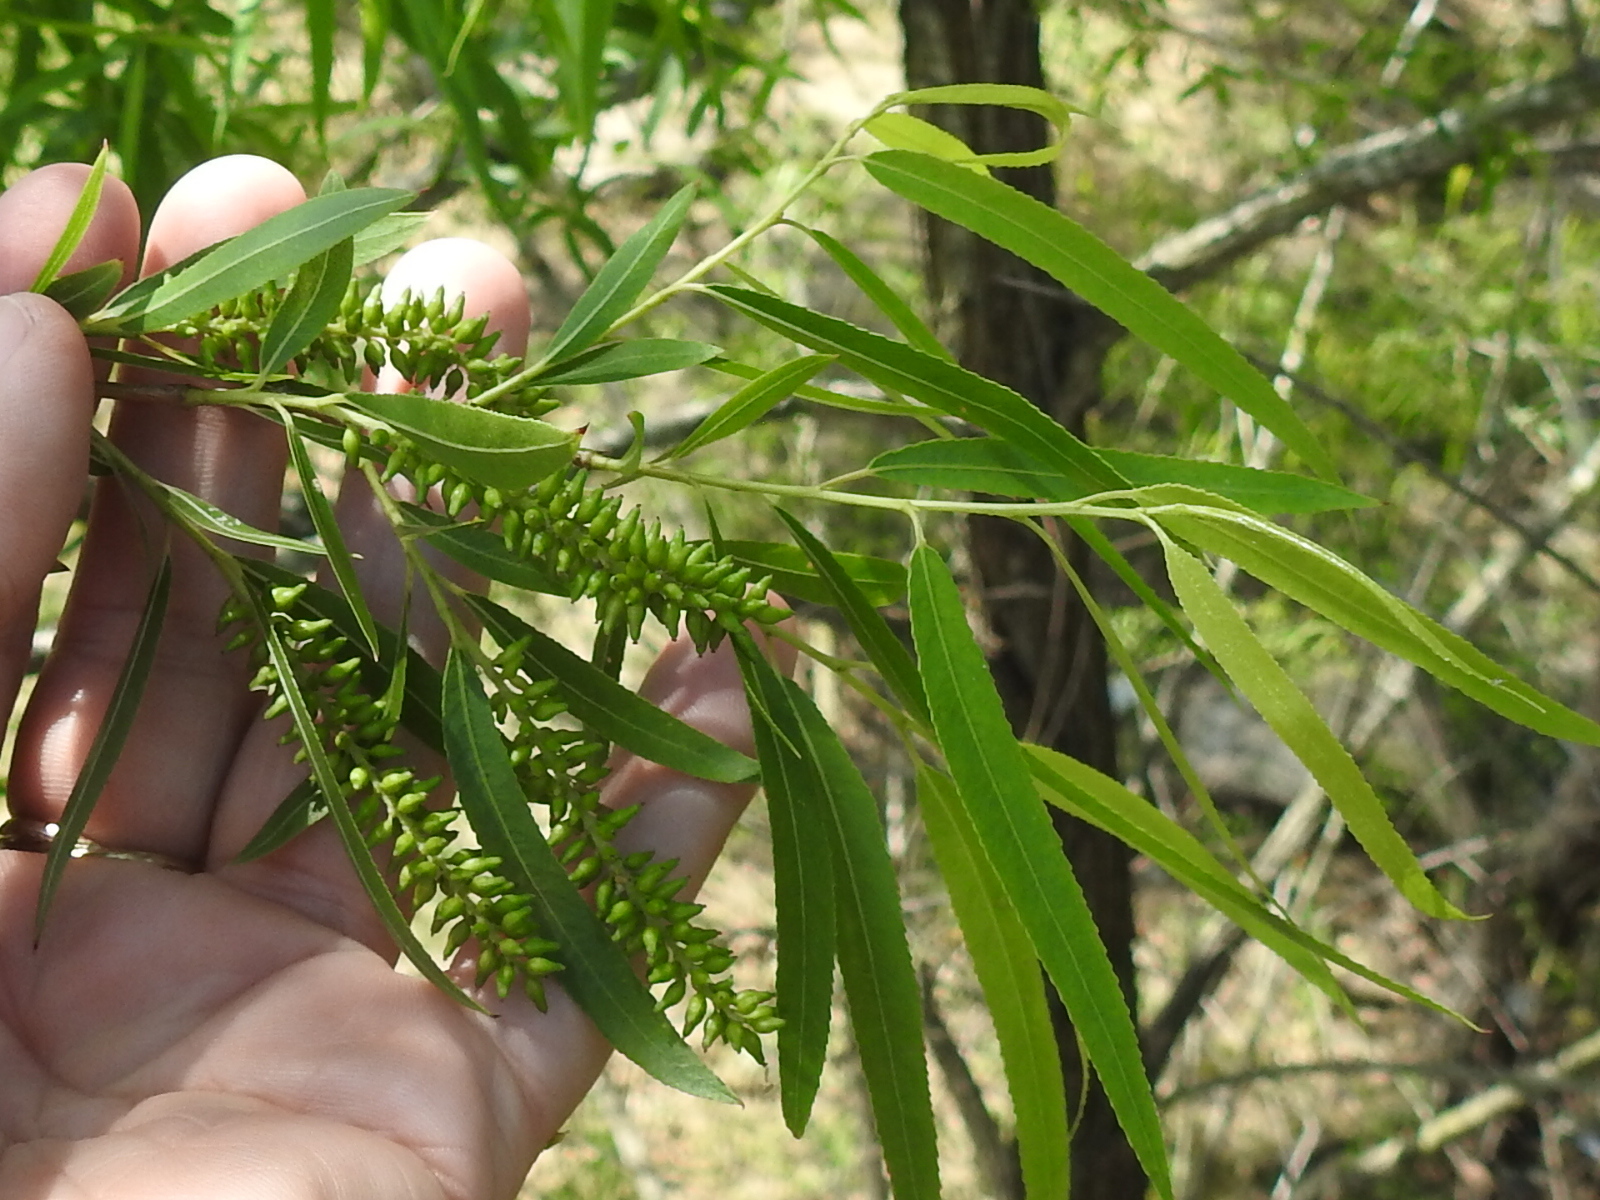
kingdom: Plantae
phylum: Tracheophyta
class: Magnoliopsida
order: Malpighiales
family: Salicaceae
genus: Salix
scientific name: Salix nigra
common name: Black willow
